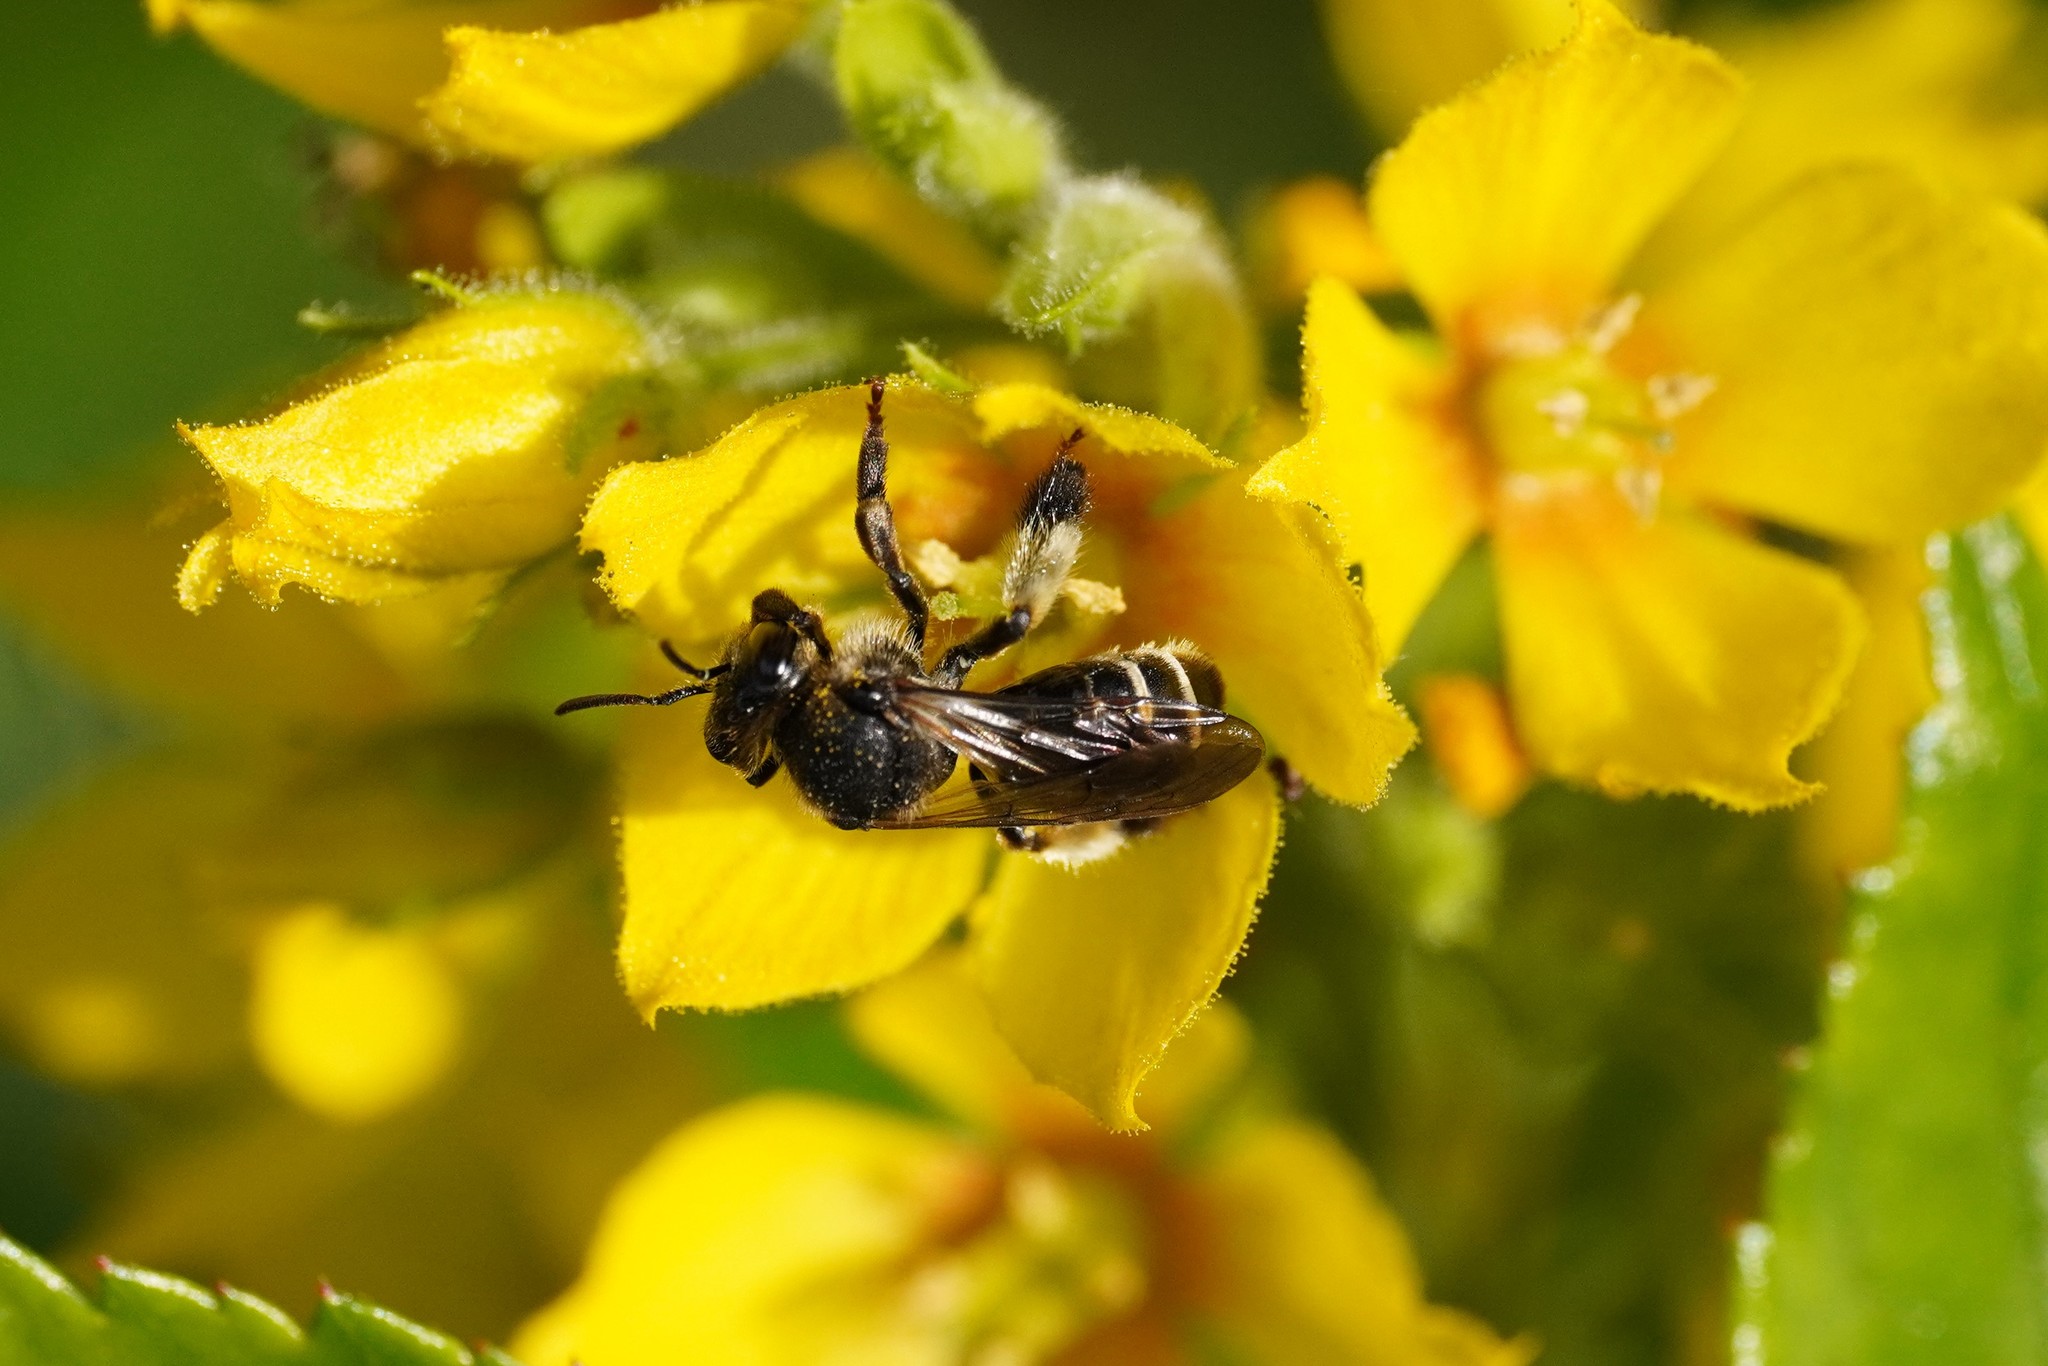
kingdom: Animalia
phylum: Arthropoda
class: Insecta
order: Hymenoptera
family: Melittidae
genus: Macropis
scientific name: Macropis europaea
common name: Yellow loosestrife bee
